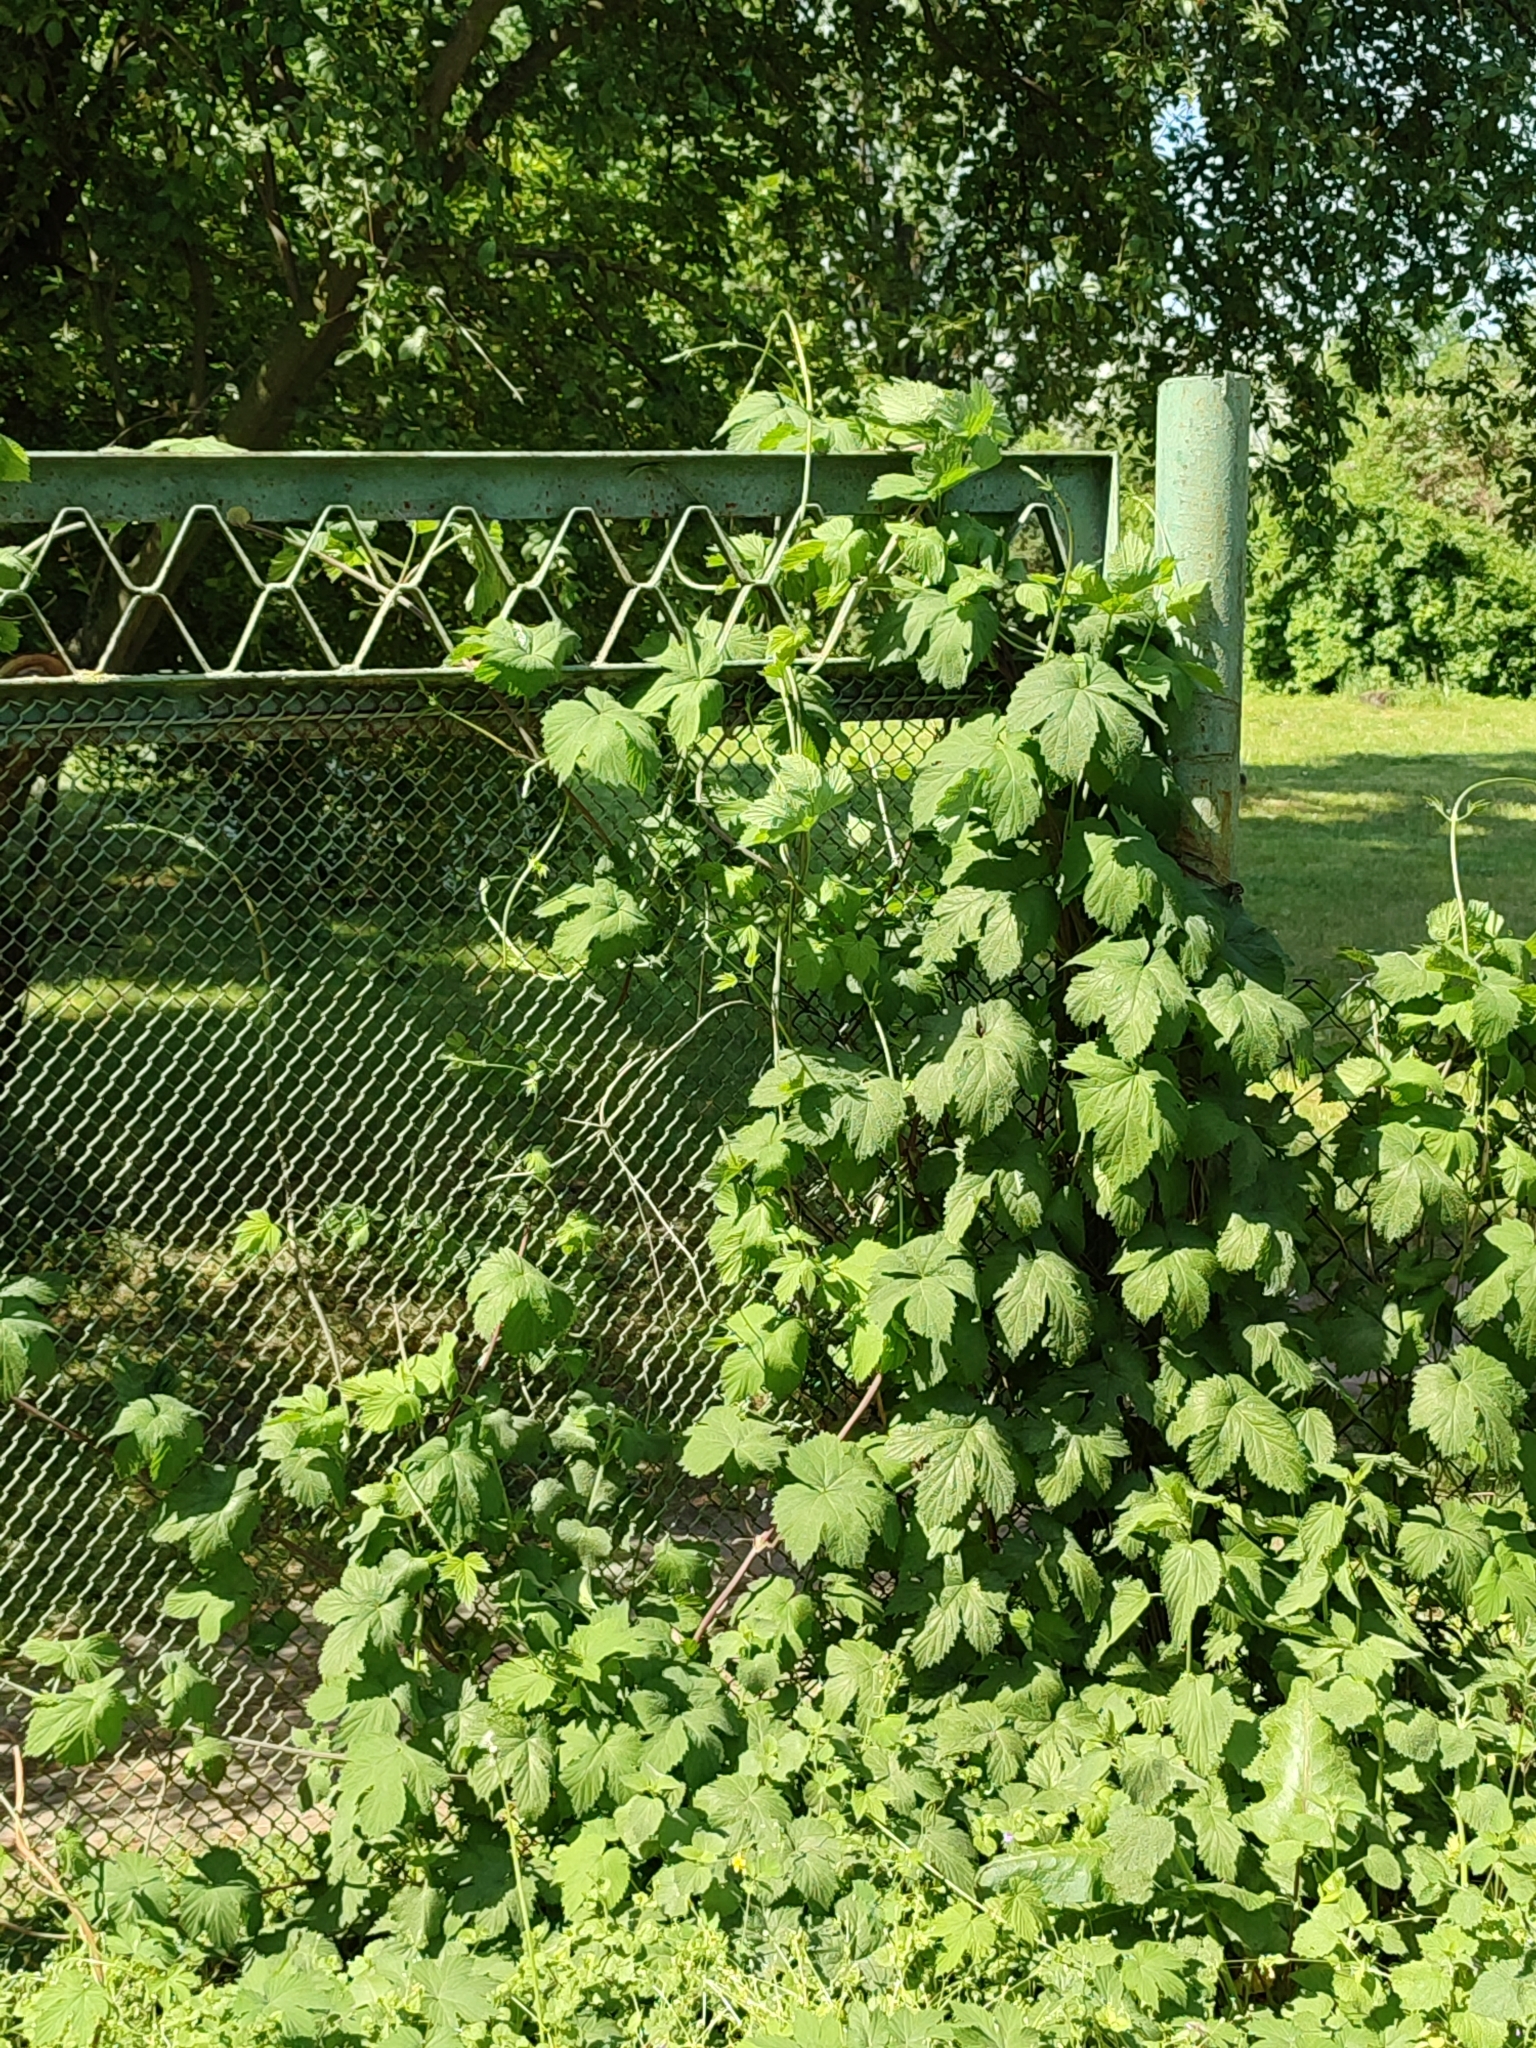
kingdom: Plantae
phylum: Tracheophyta
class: Magnoliopsida
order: Rosales
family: Cannabaceae
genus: Humulus
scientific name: Humulus lupulus
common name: Hop
